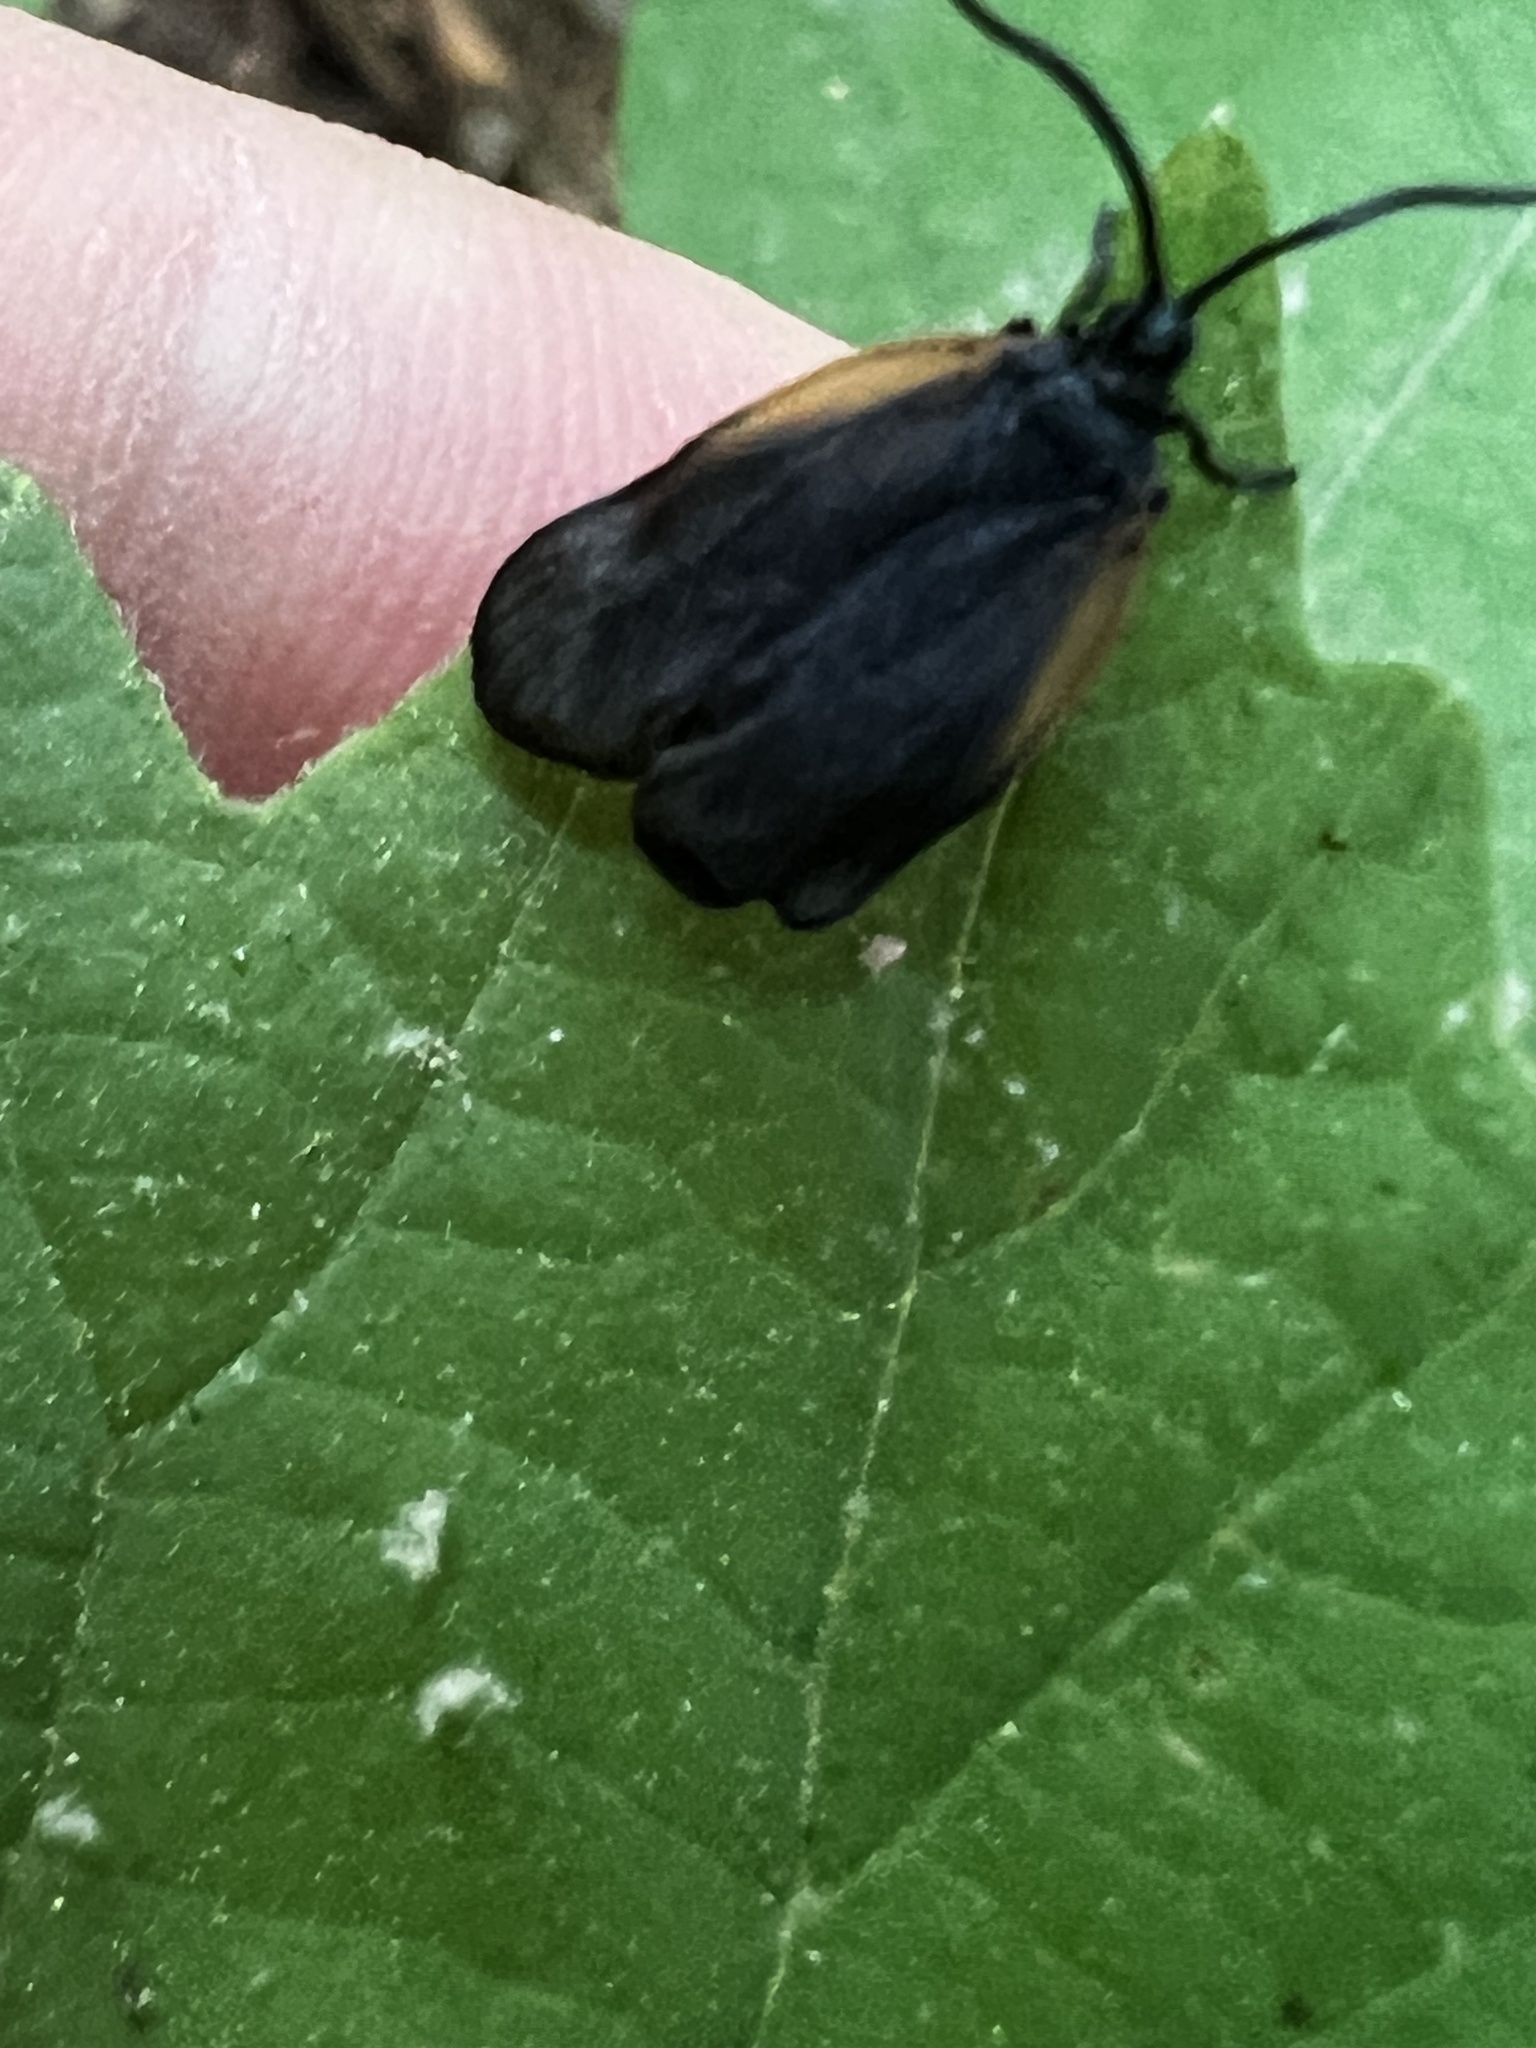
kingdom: Animalia
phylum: Arthropoda
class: Insecta
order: Lepidoptera
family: Zygaenidae
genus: Malthaca
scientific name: Malthaca dimidiata
